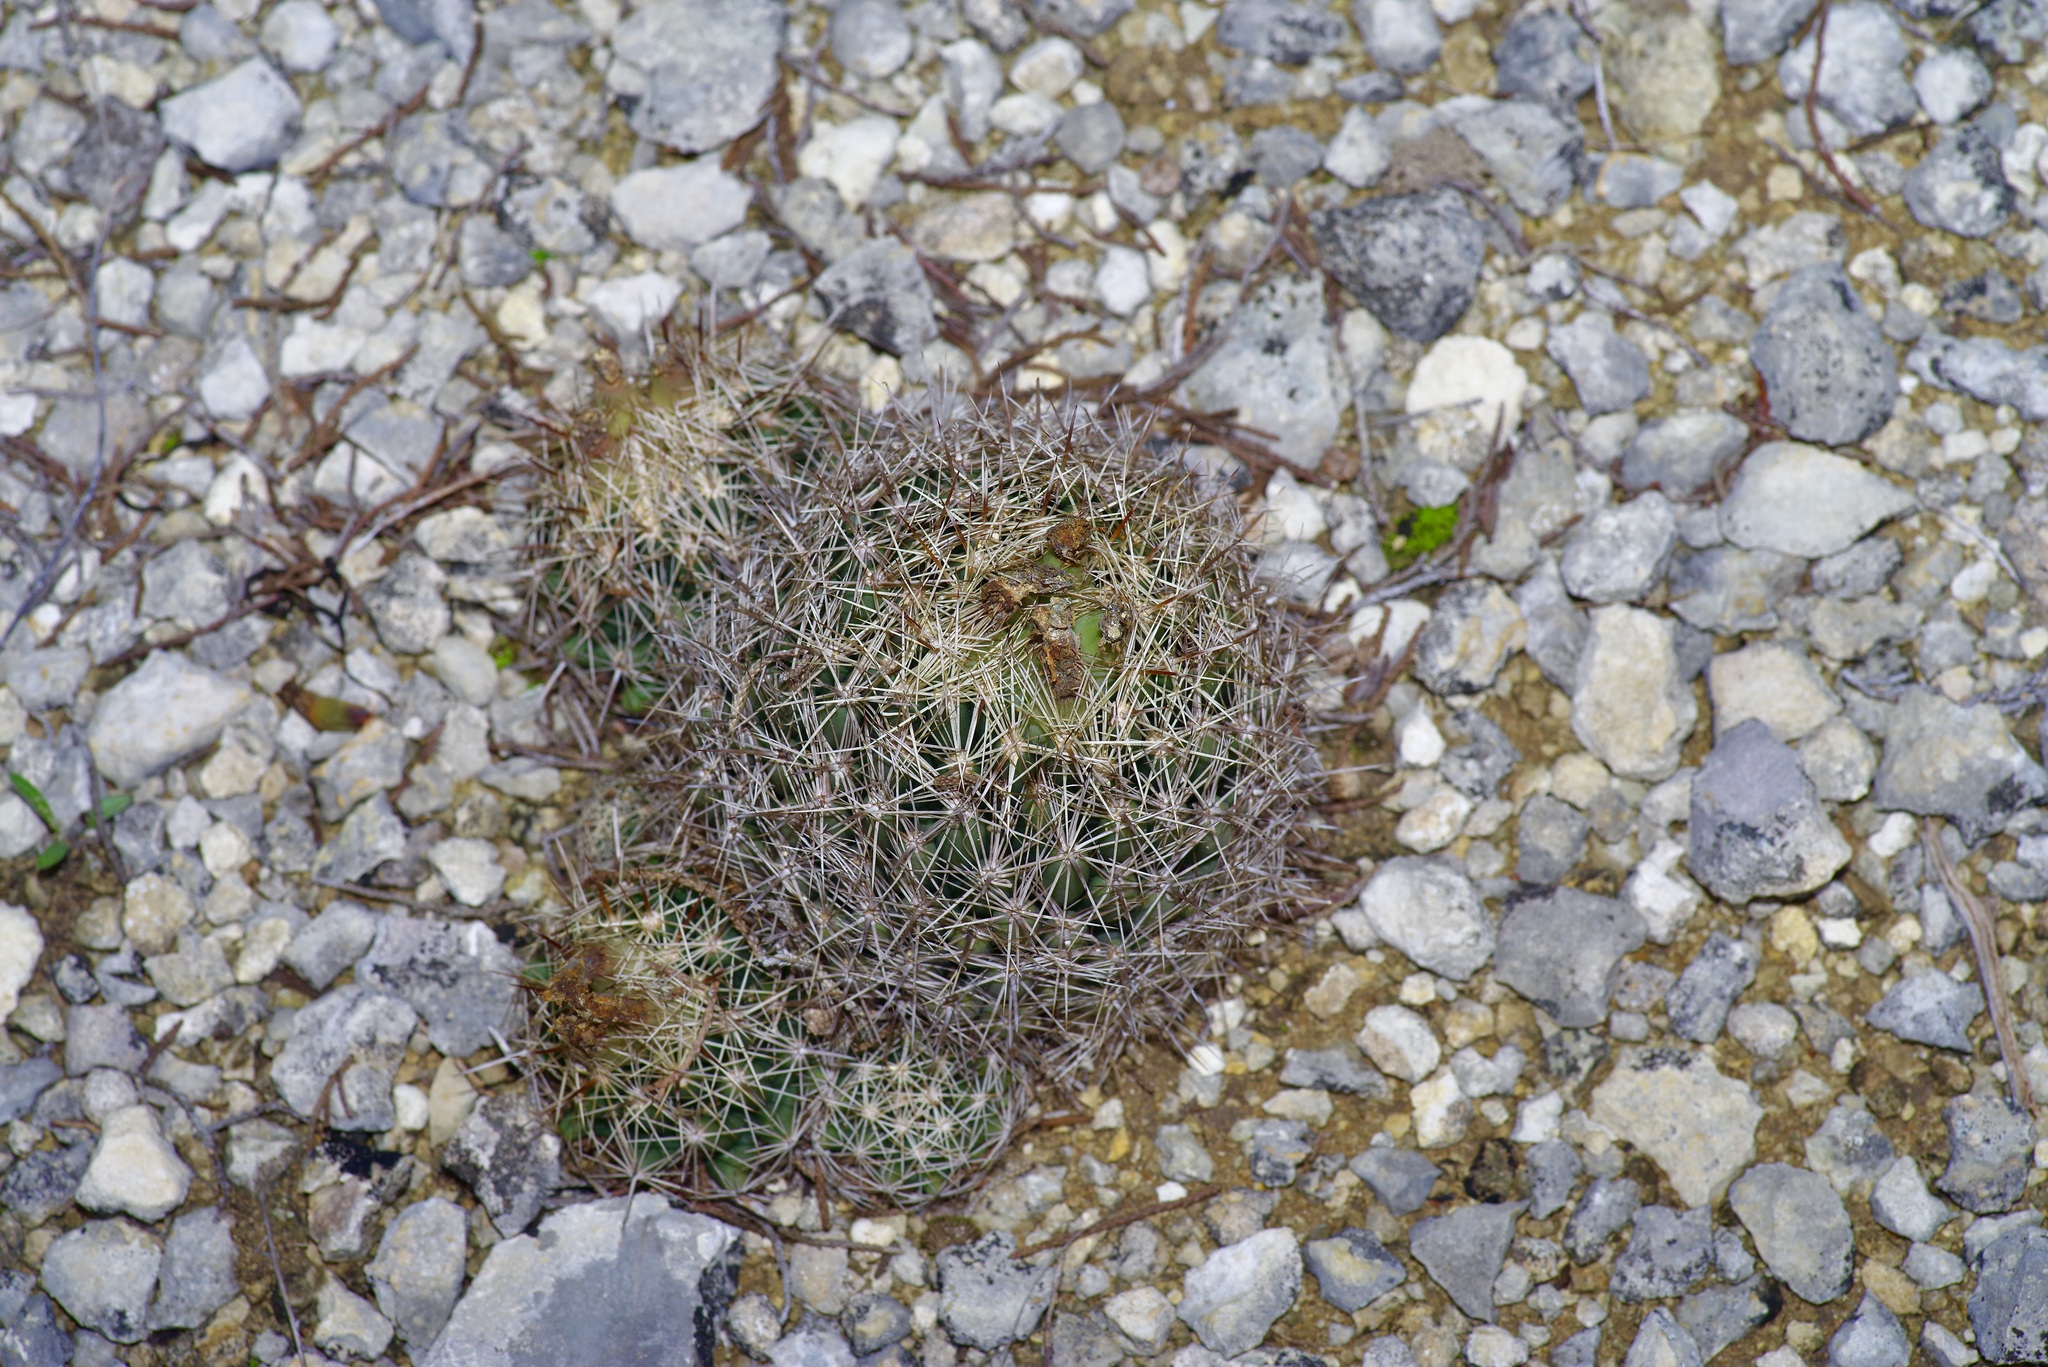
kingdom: Plantae
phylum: Tracheophyta
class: Magnoliopsida
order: Caryophyllales
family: Cactaceae
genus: Coryphantha
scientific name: Coryphantha sulcata
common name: Finger cactus
